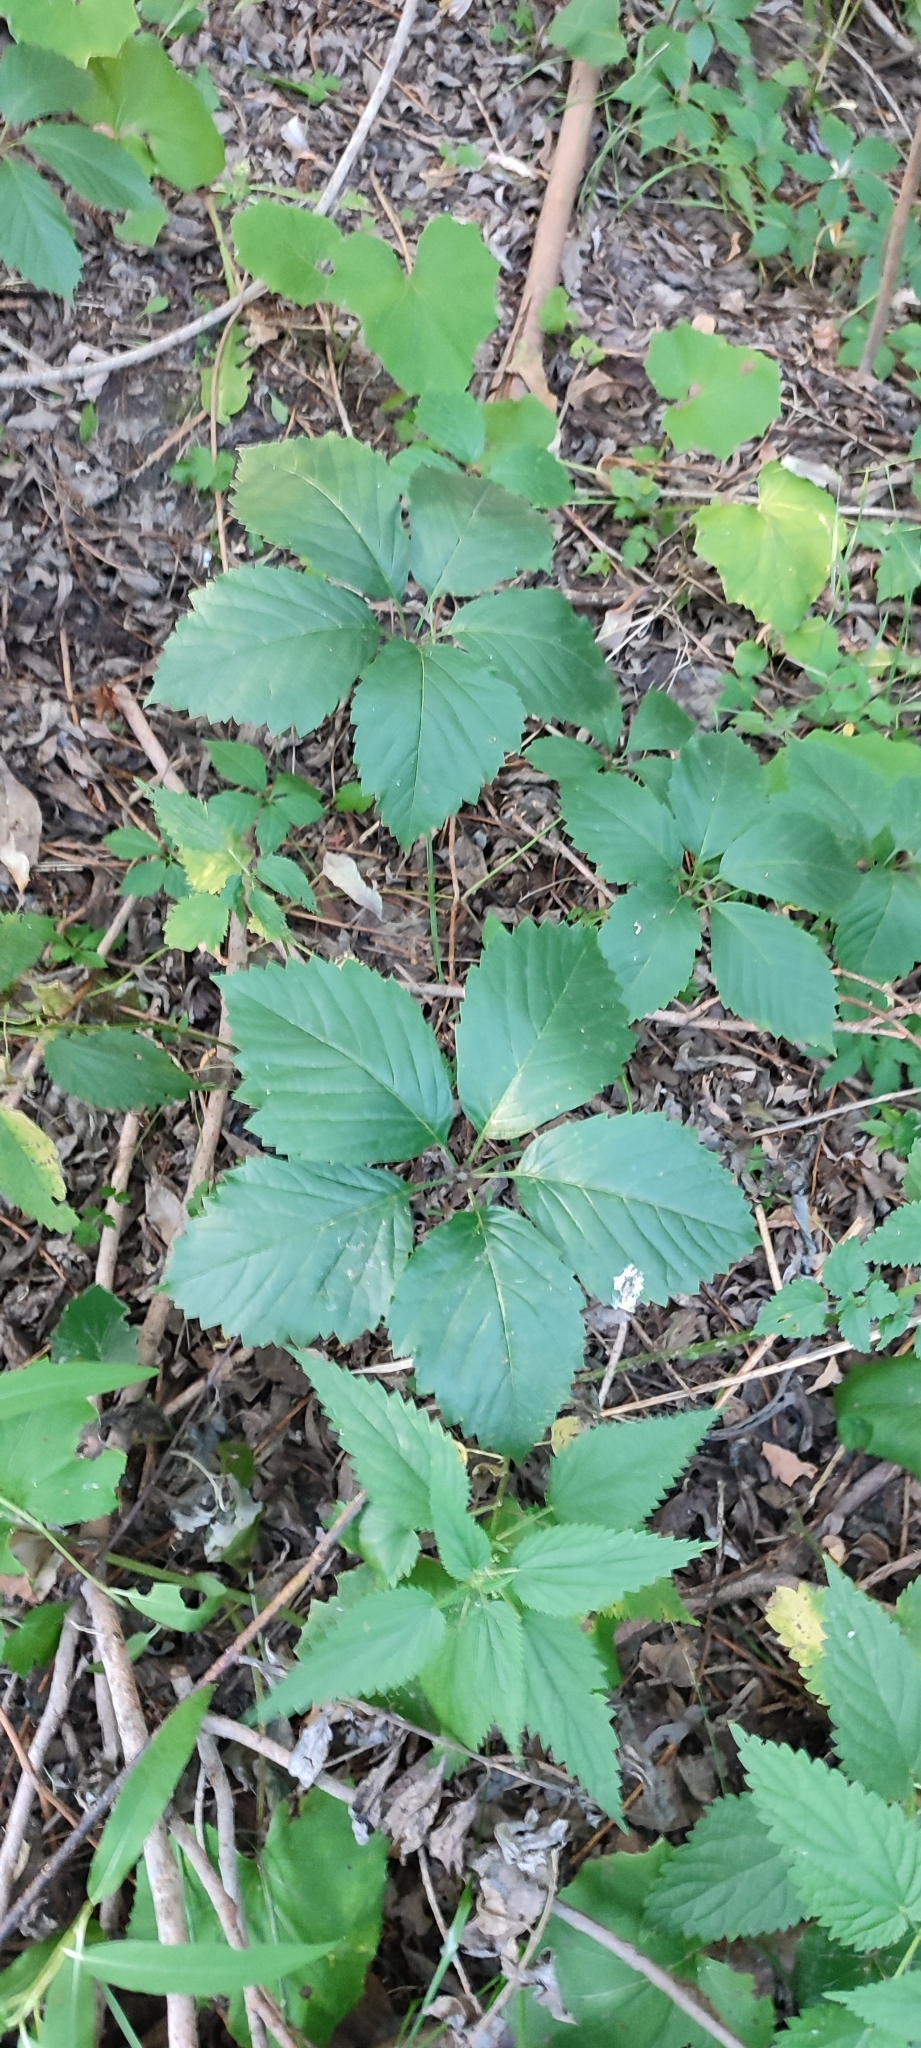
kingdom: Plantae
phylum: Tracheophyta
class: Magnoliopsida
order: Vitales
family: Vitaceae
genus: Parthenocissus
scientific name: Parthenocissus inserta
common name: False virginia-creeper
